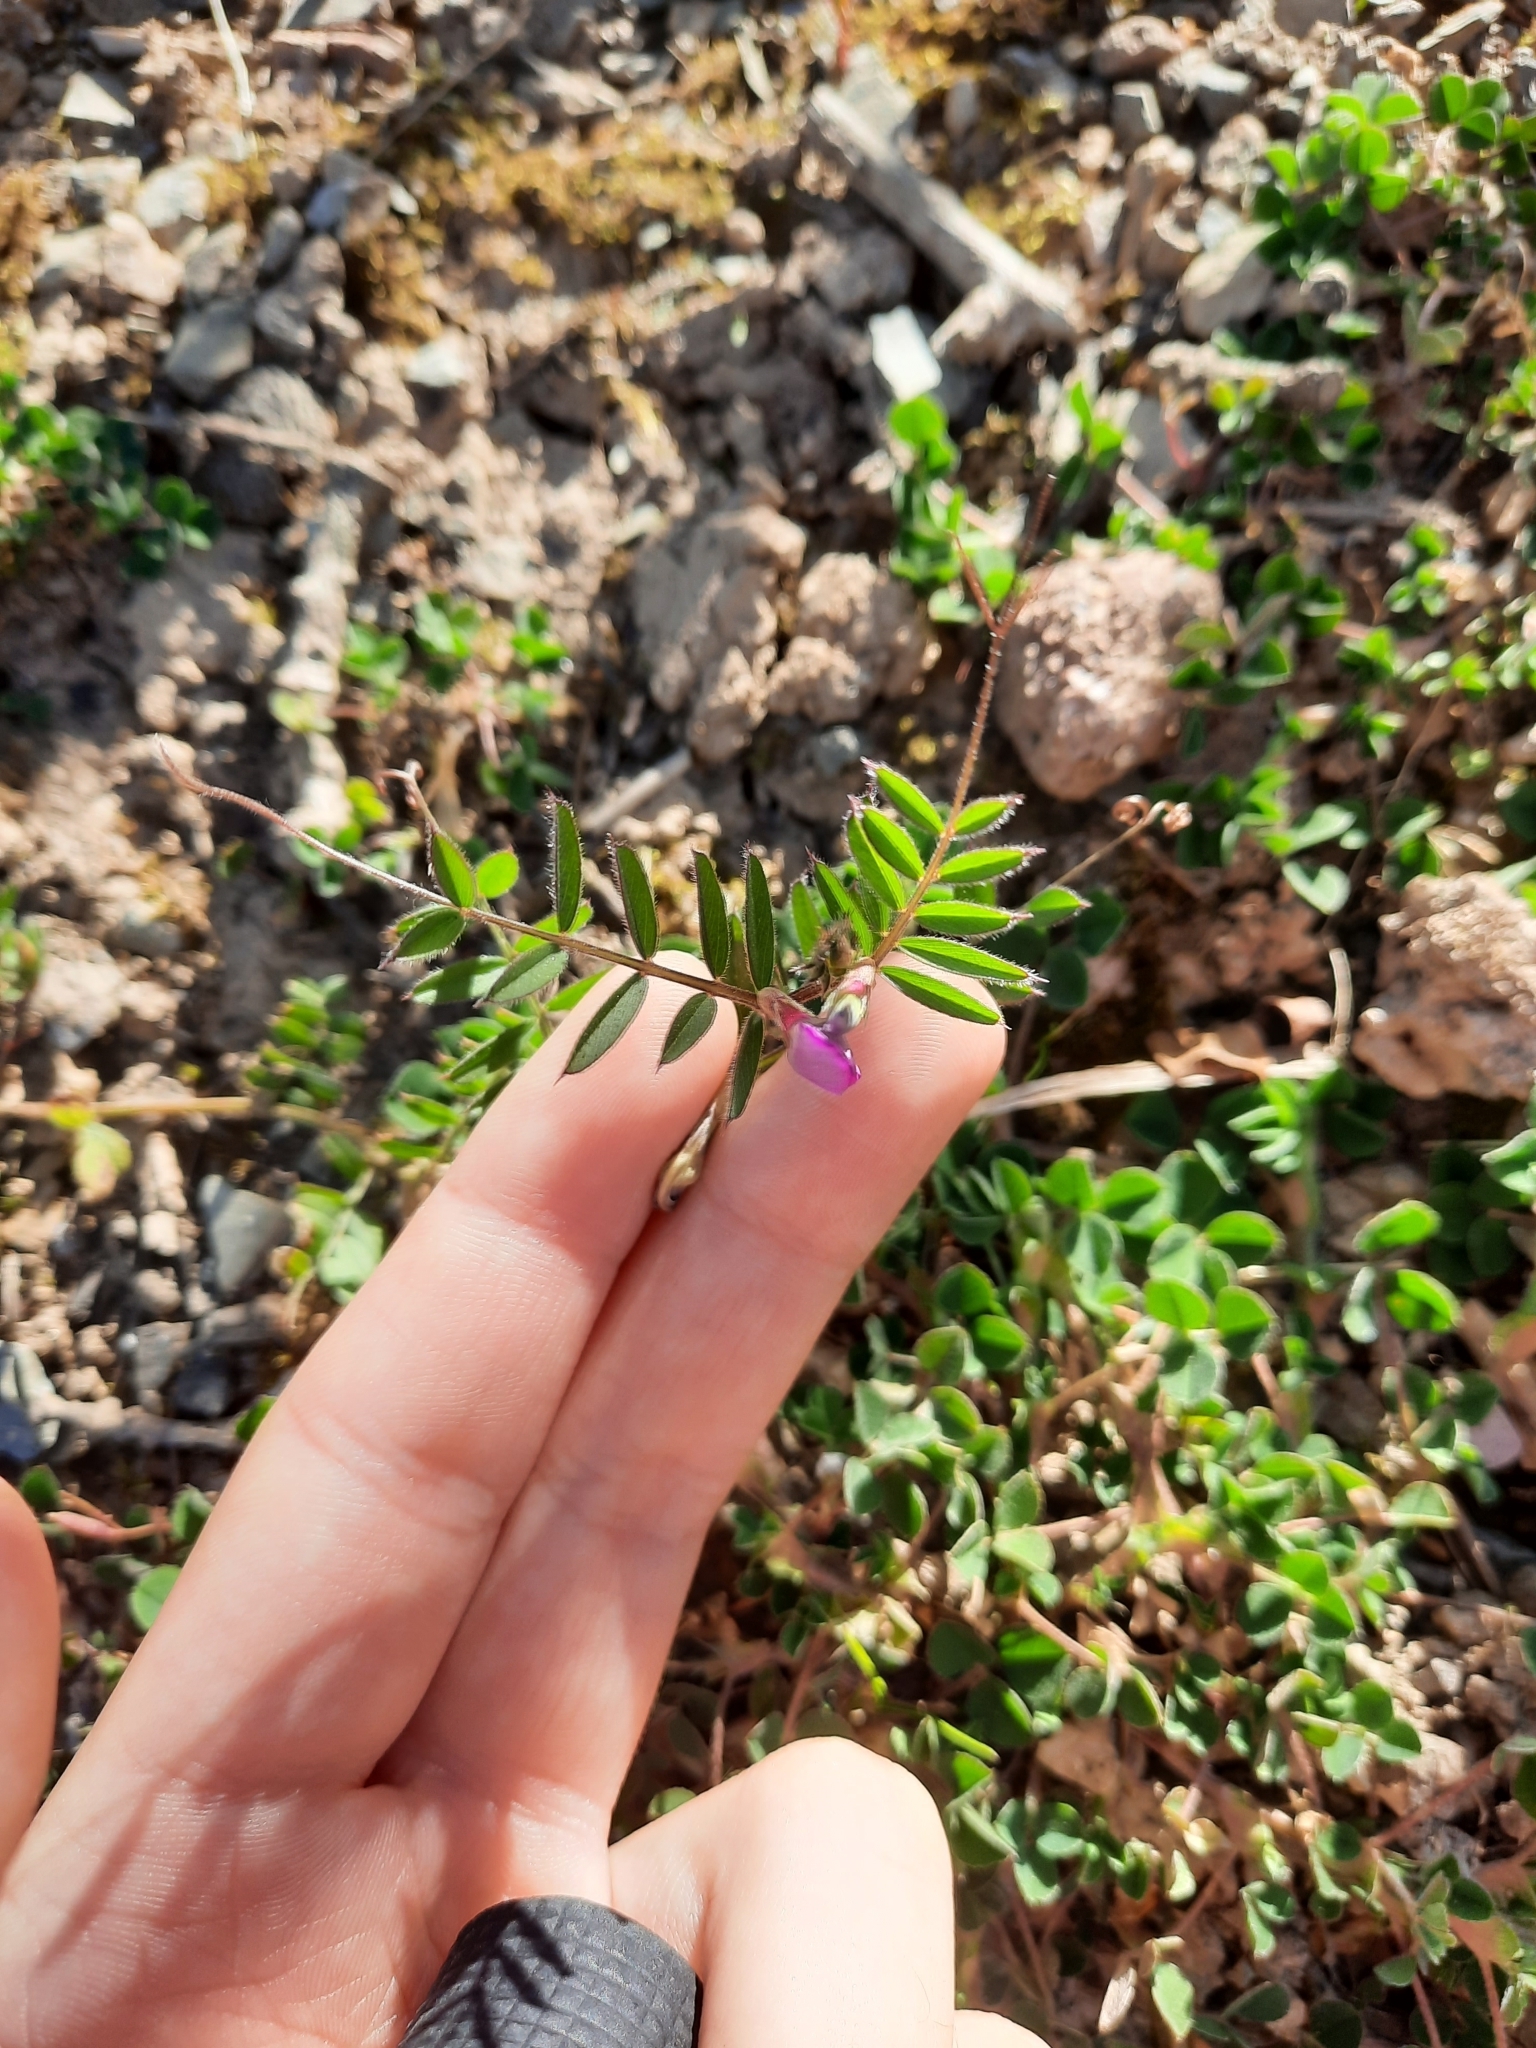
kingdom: Plantae
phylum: Tracheophyta
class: Magnoliopsida
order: Fabales
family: Fabaceae
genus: Vicia
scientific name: Vicia sativa
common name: Garden vetch
